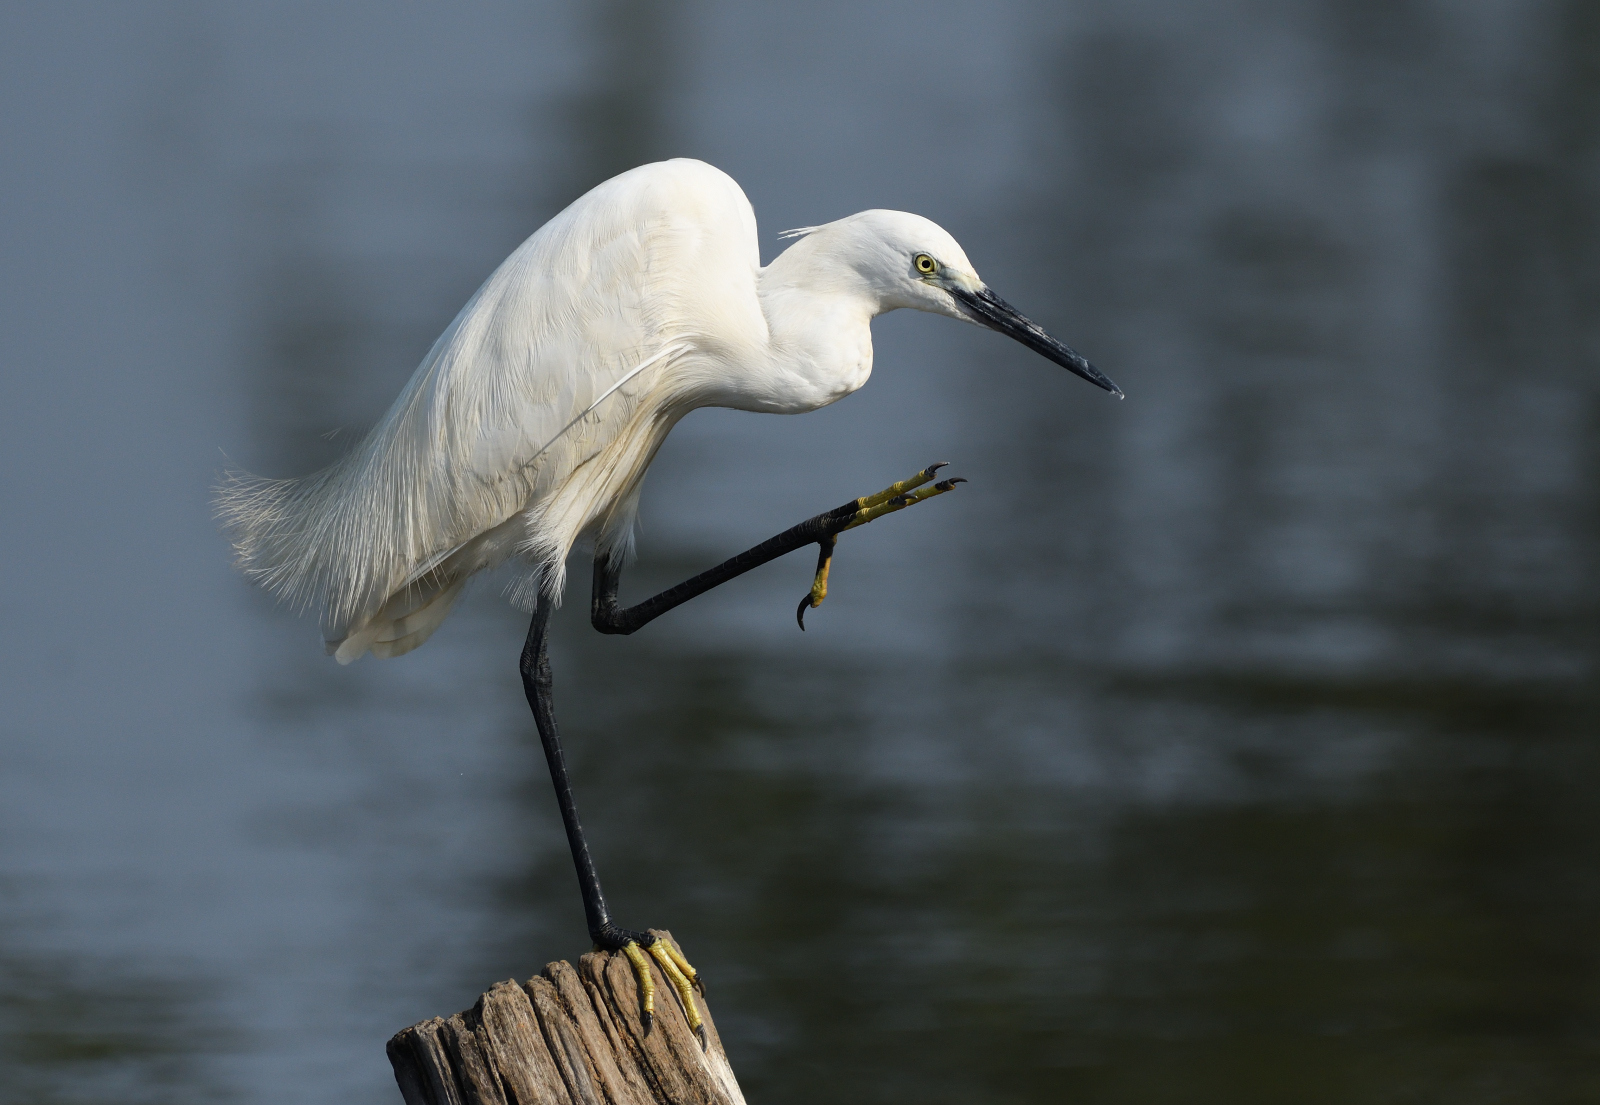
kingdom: Animalia
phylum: Chordata
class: Aves
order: Pelecaniformes
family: Ardeidae
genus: Egretta
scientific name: Egretta garzetta
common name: Little egret
